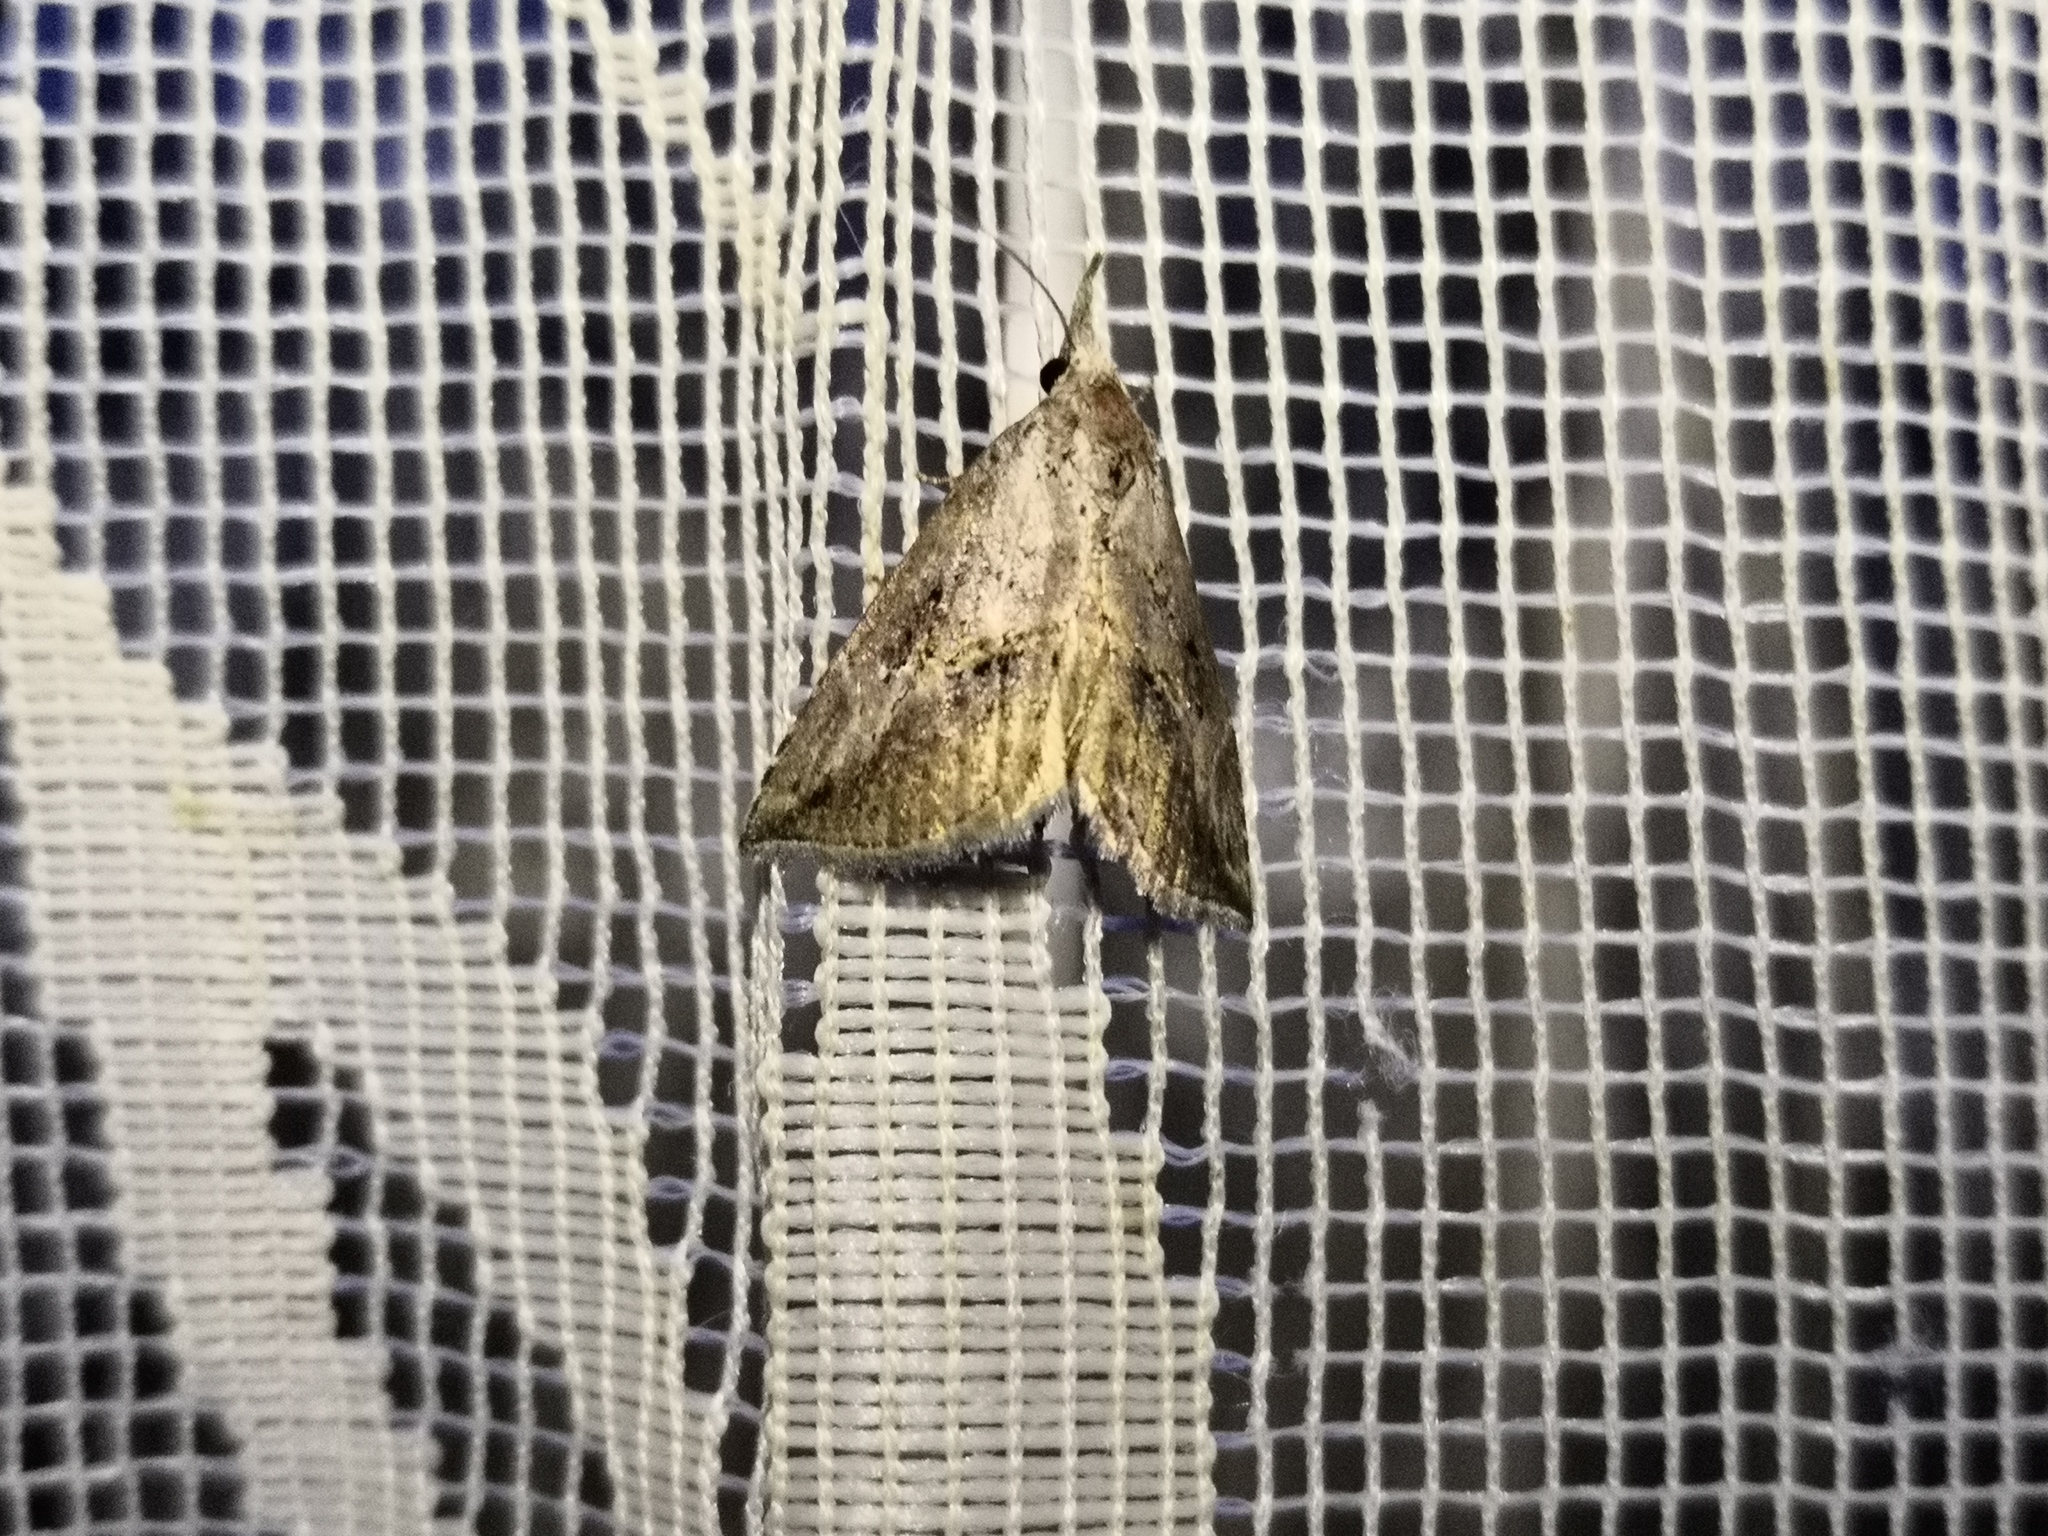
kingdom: Animalia
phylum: Arthropoda
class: Insecta
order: Lepidoptera
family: Erebidae
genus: Zekelita
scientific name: Zekelita antiqualis
